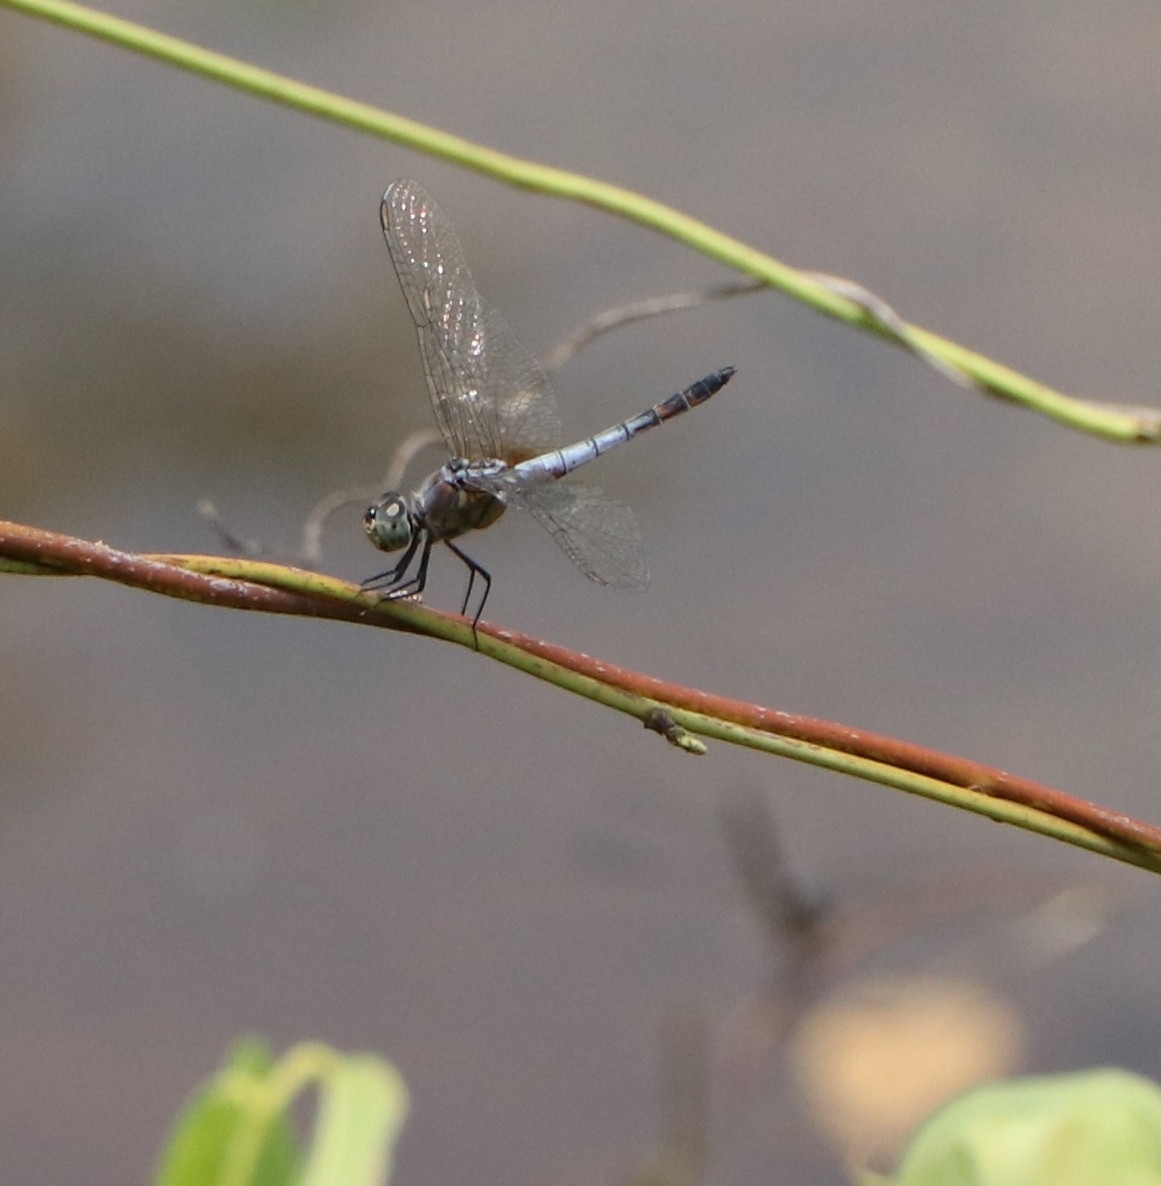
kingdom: Animalia
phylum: Arthropoda
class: Insecta
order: Odonata
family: Libellulidae
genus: Brachydiplax
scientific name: Brachydiplax chalybea
